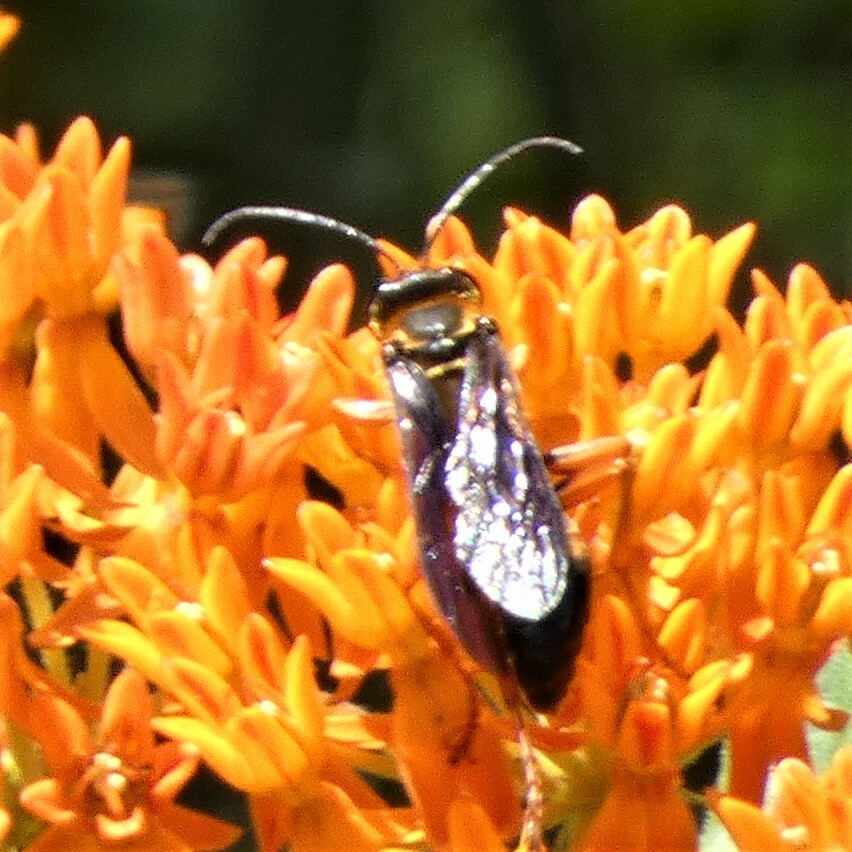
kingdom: Animalia
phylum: Arthropoda
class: Insecta
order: Hymenoptera
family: Sphecidae
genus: Sphex
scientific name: Sphex ichneumoneus
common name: Great golden digger wasp
